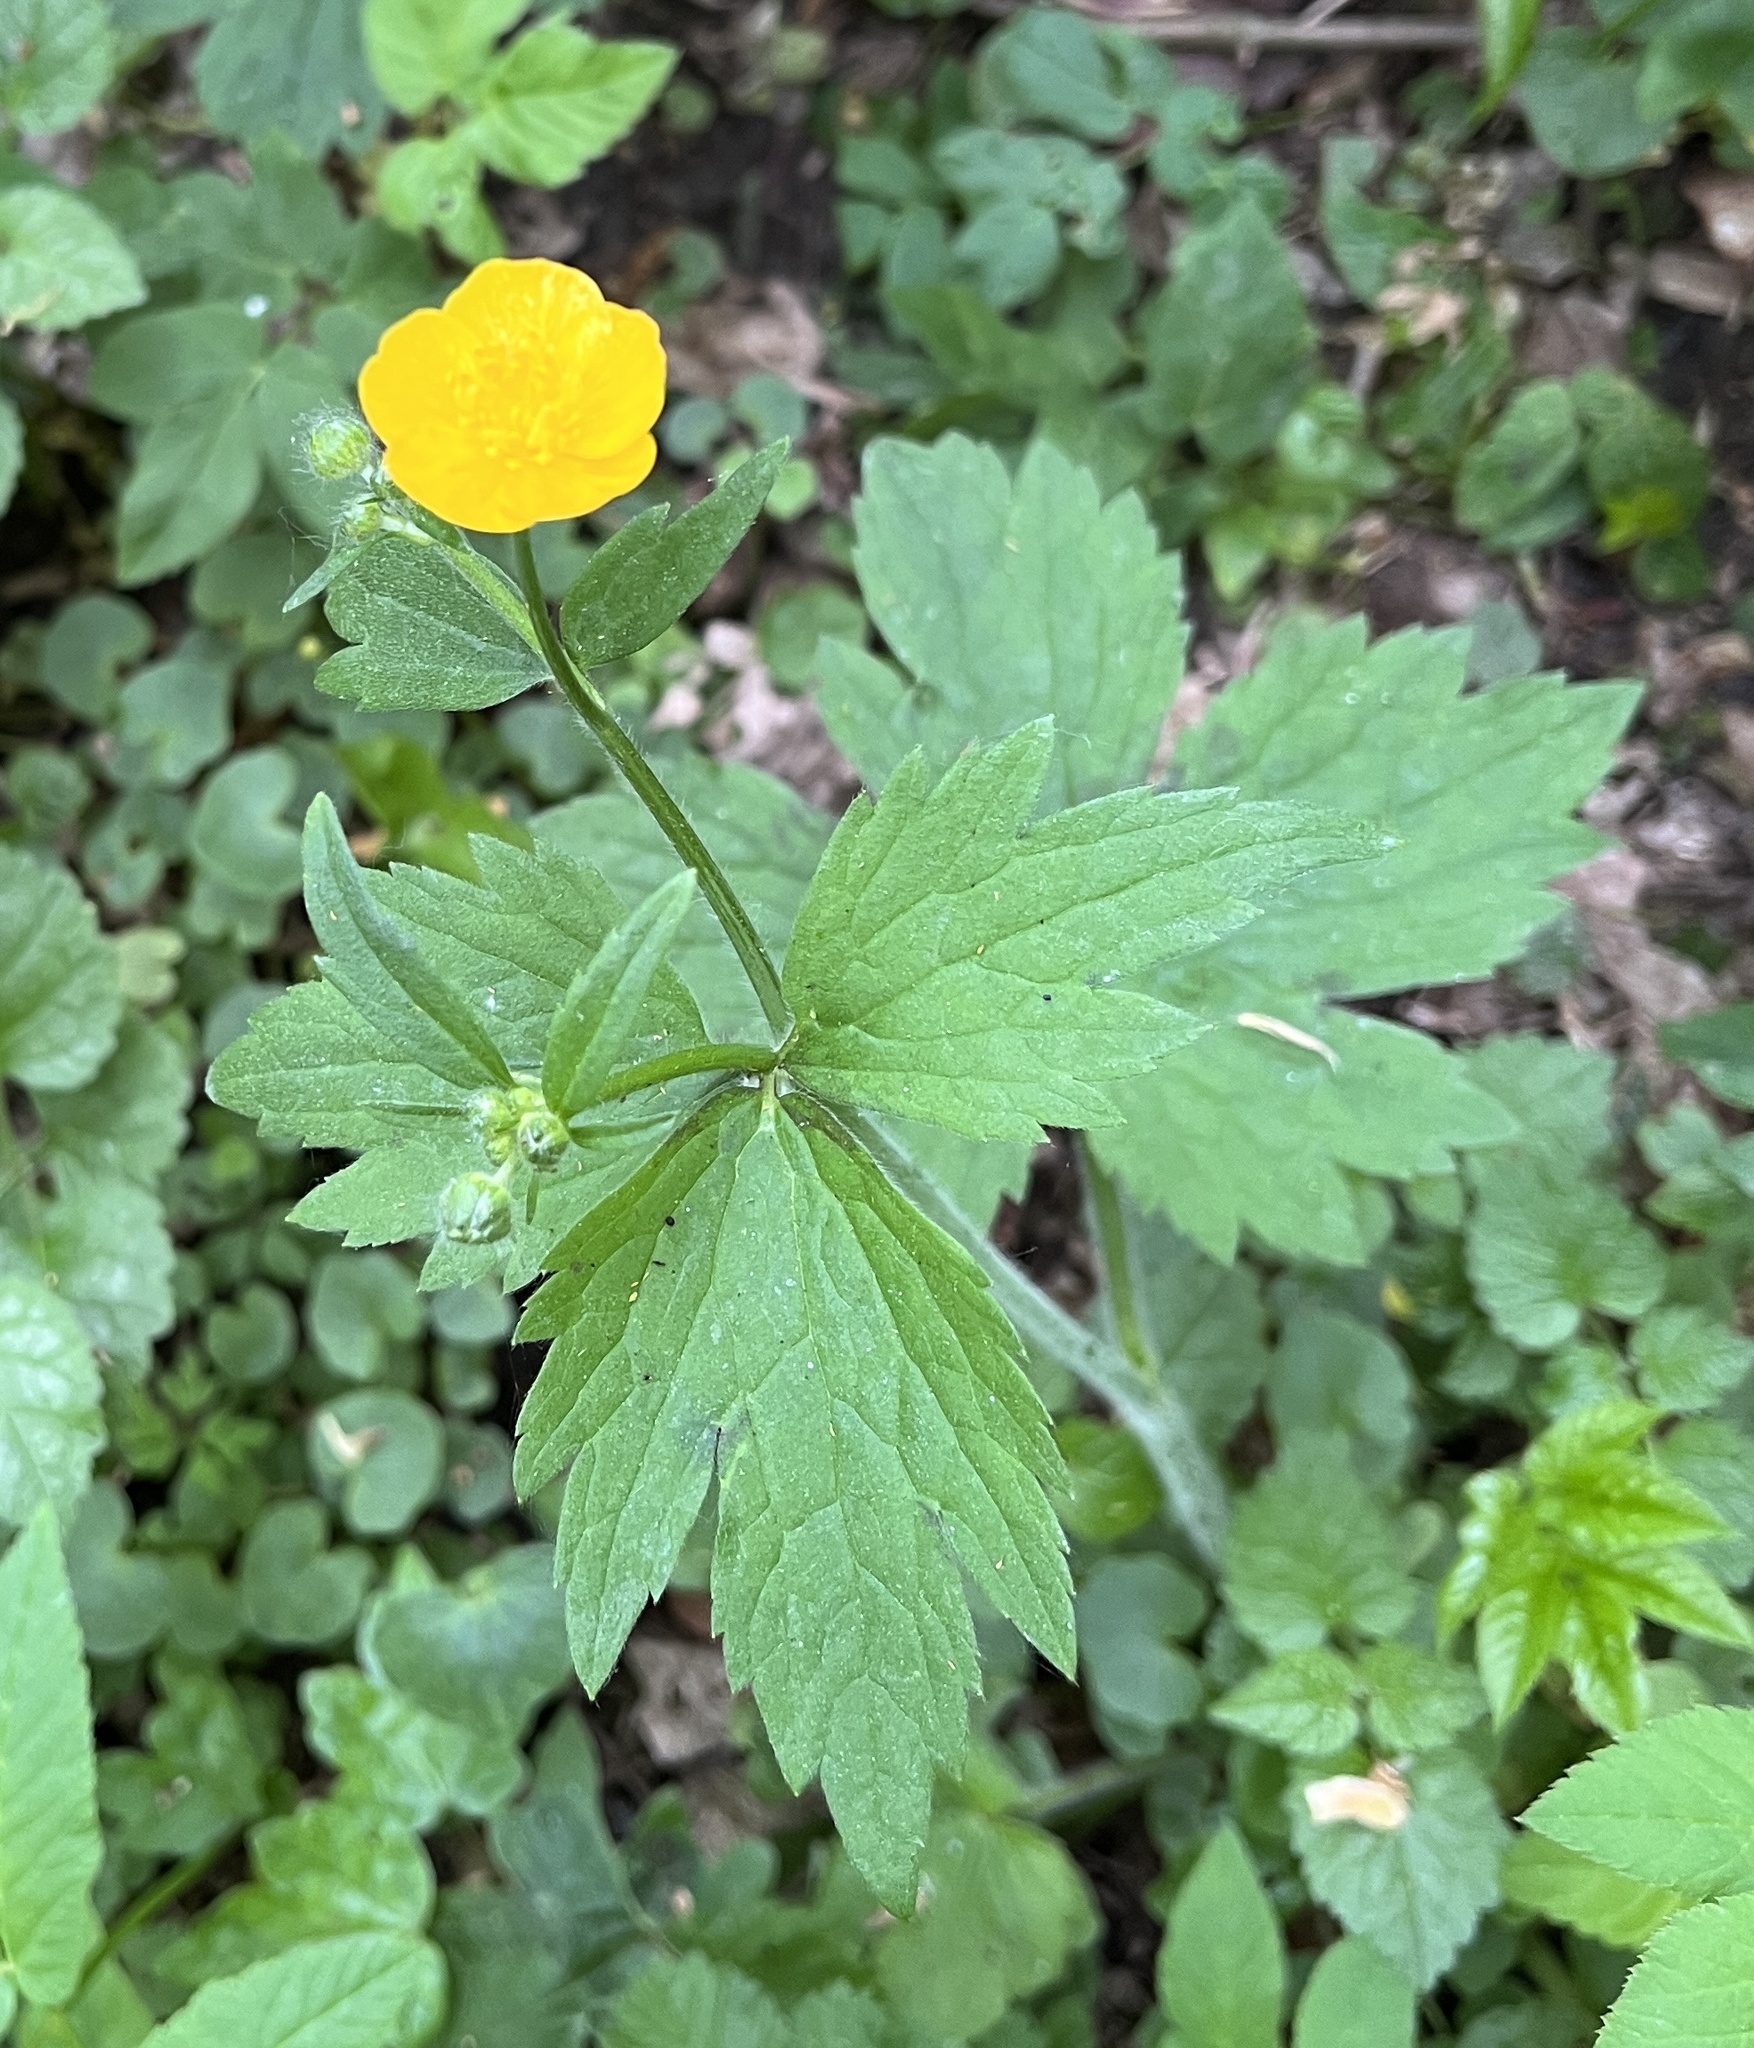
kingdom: Plantae
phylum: Tracheophyta
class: Magnoliopsida
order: Ranunculales
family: Ranunculaceae
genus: Ranunculus
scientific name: Ranunculus lanuginosus
